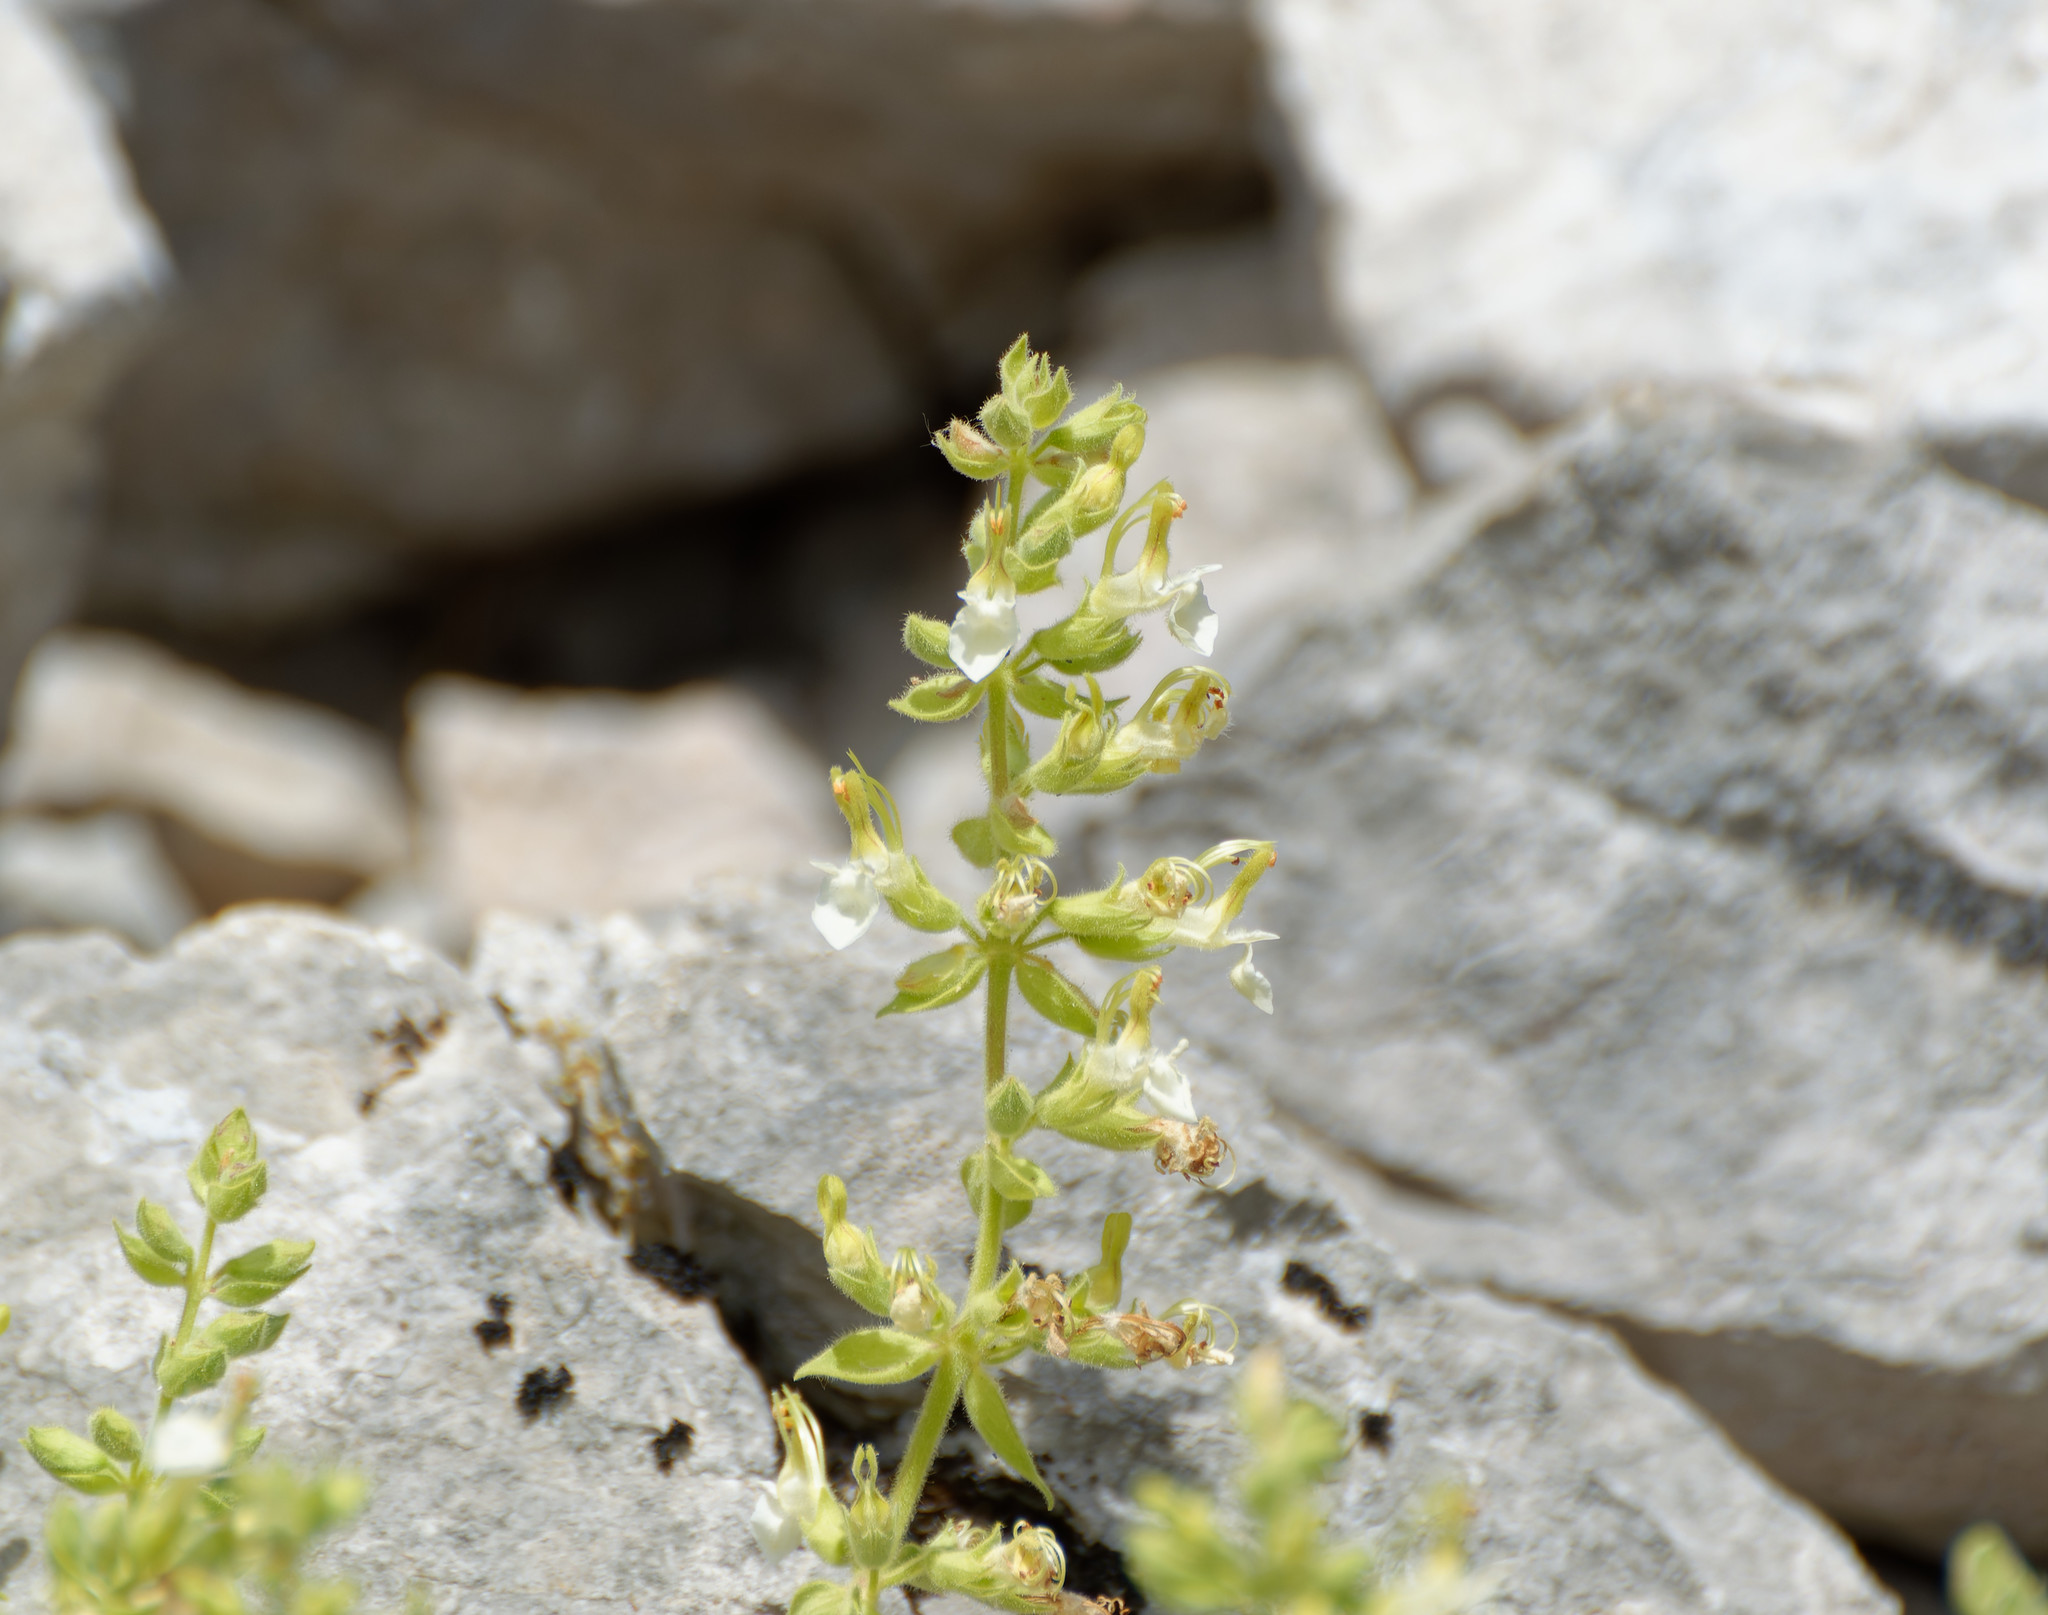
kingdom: Plantae
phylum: Tracheophyta
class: Magnoliopsida
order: Lamiales
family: Lamiaceae
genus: Teucrium
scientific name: Teucrium flavum
